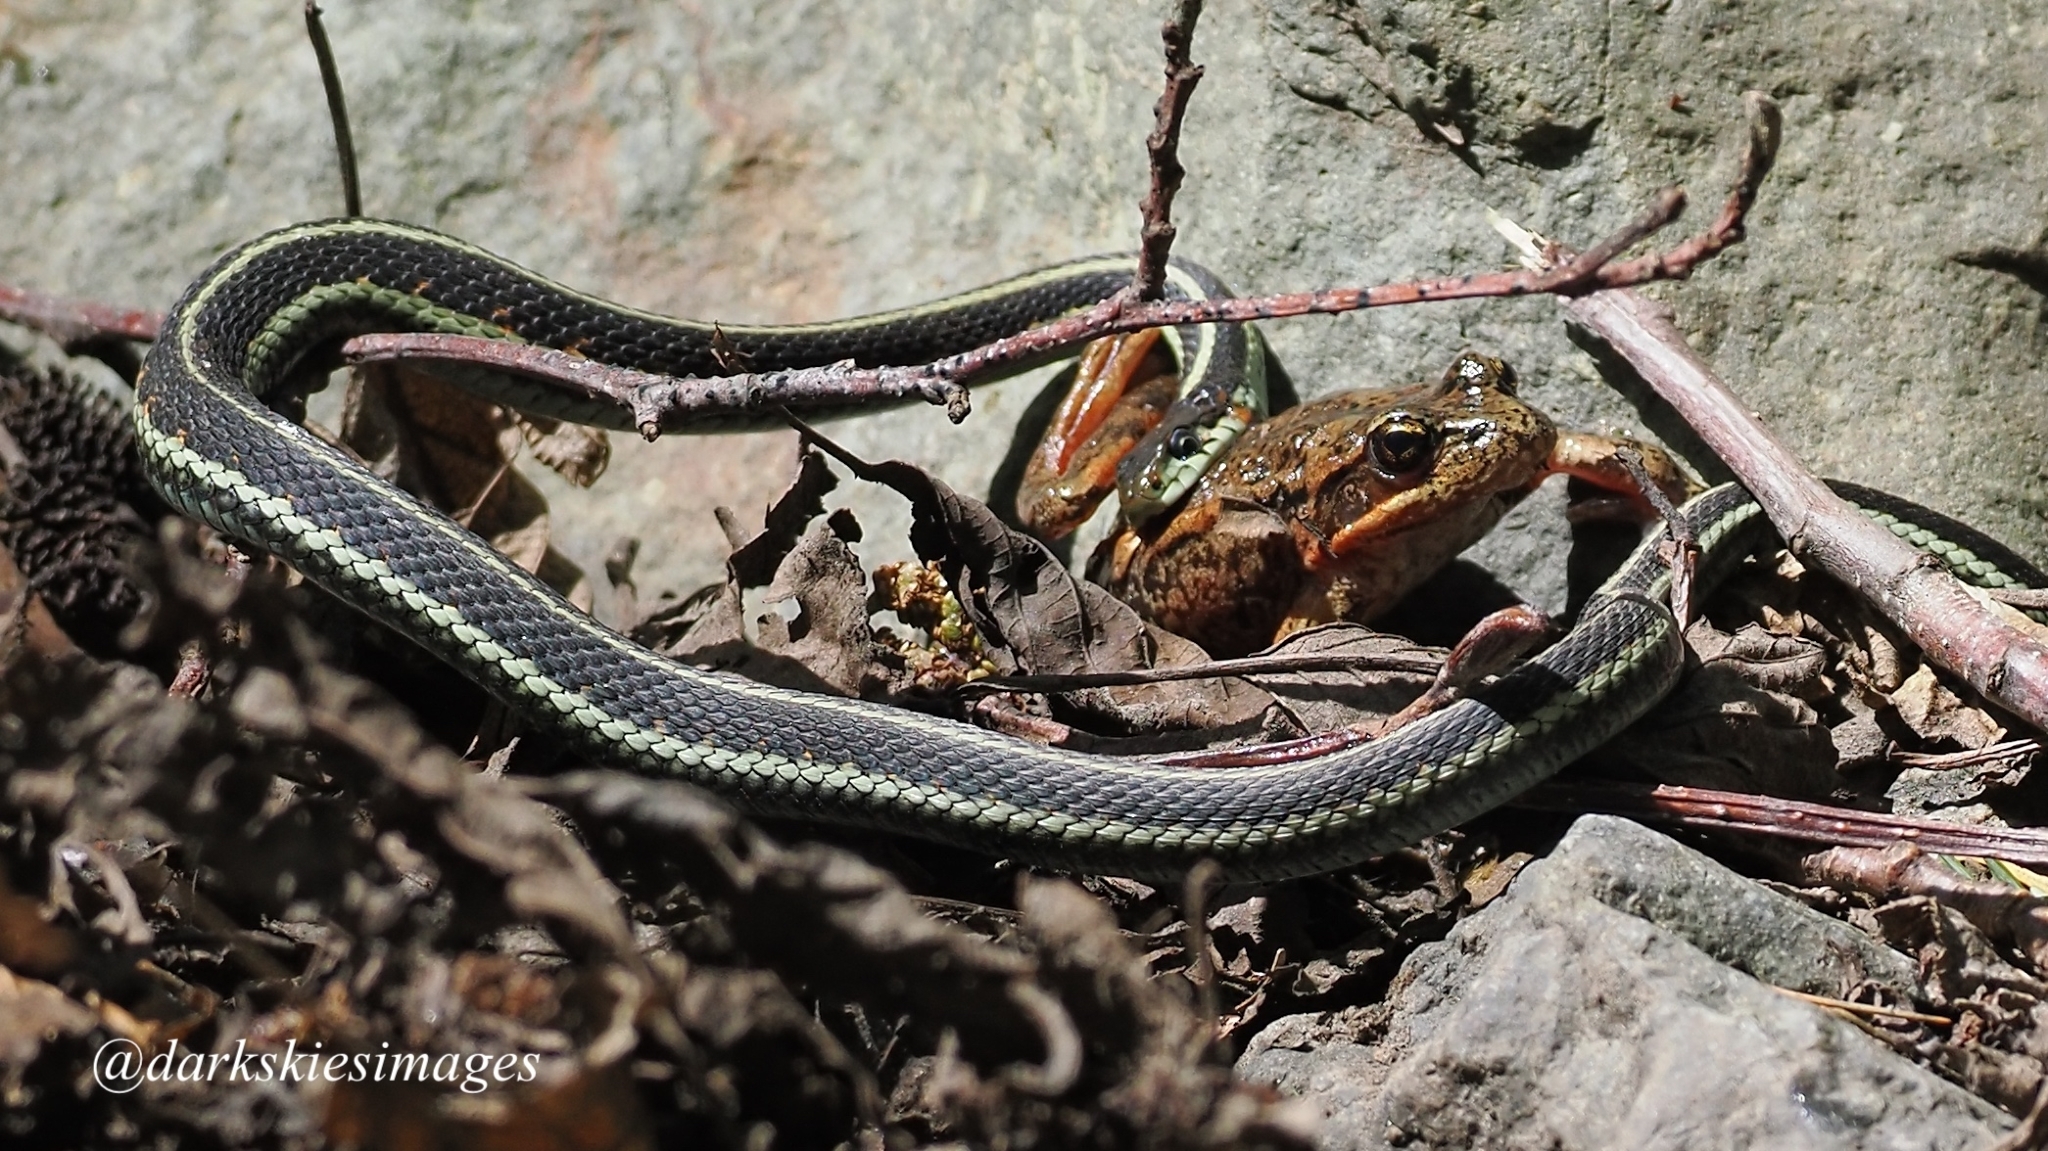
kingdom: Animalia
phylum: Chordata
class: Squamata
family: Colubridae
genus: Thamnophis
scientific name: Thamnophis sirtalis
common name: Common garter snake
